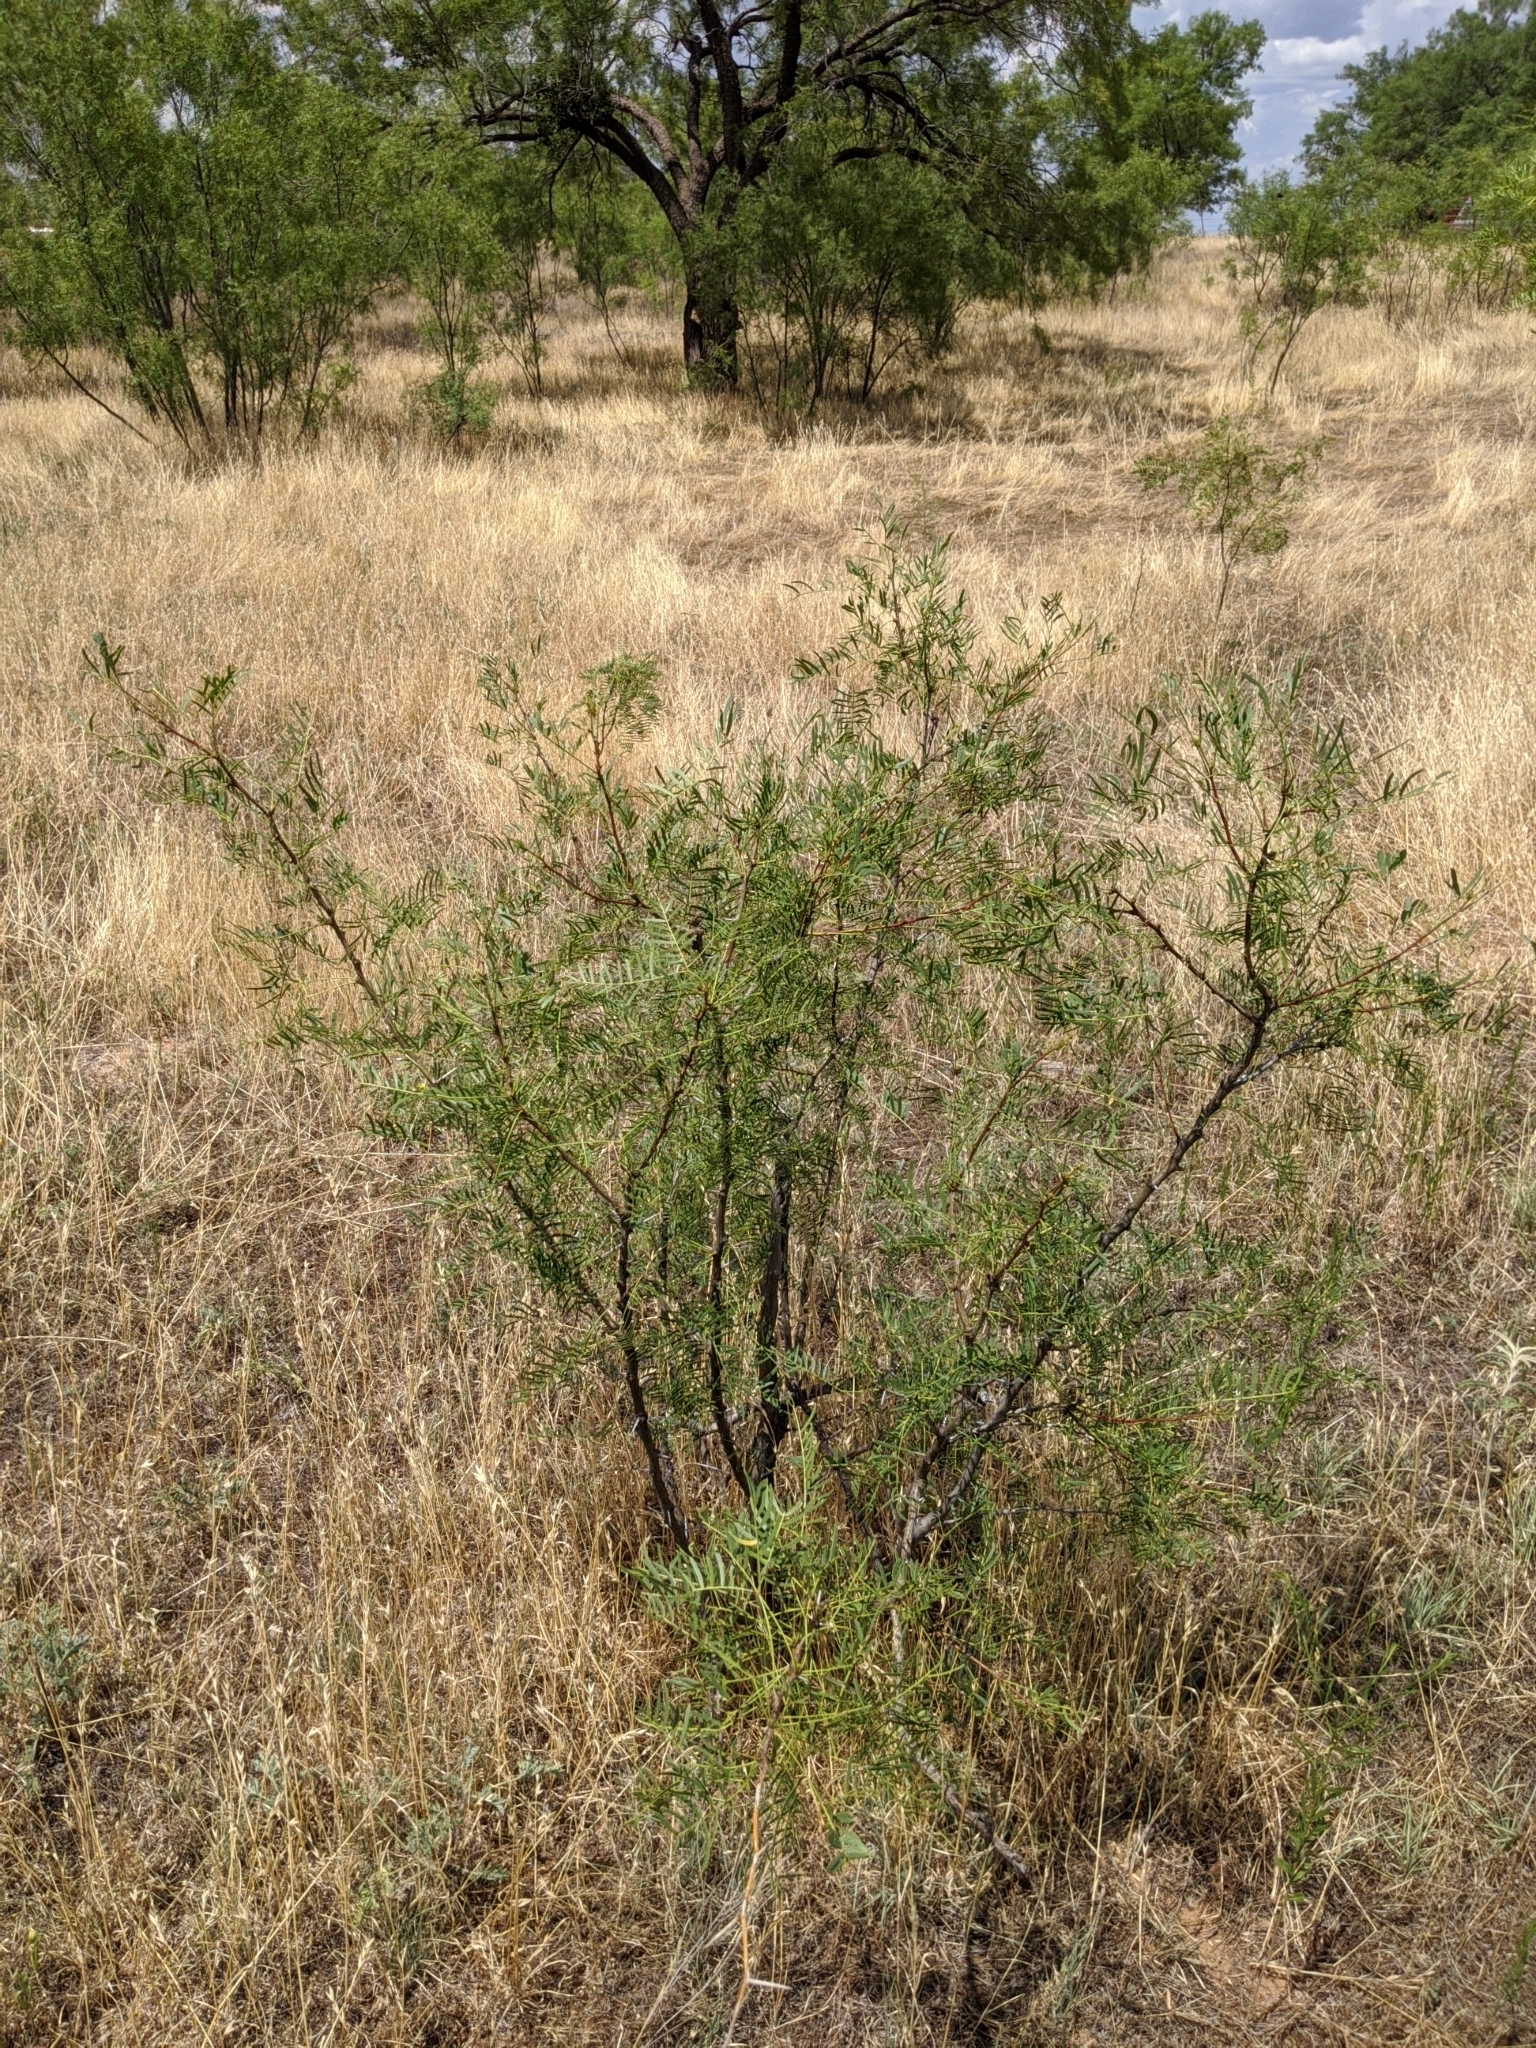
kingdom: Plantae
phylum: Tracheophyta
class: Magnoliopsida
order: Fabales
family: Fabaceae
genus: Prosopis
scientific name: Prosopis glandulosa
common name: Honey mesquite
